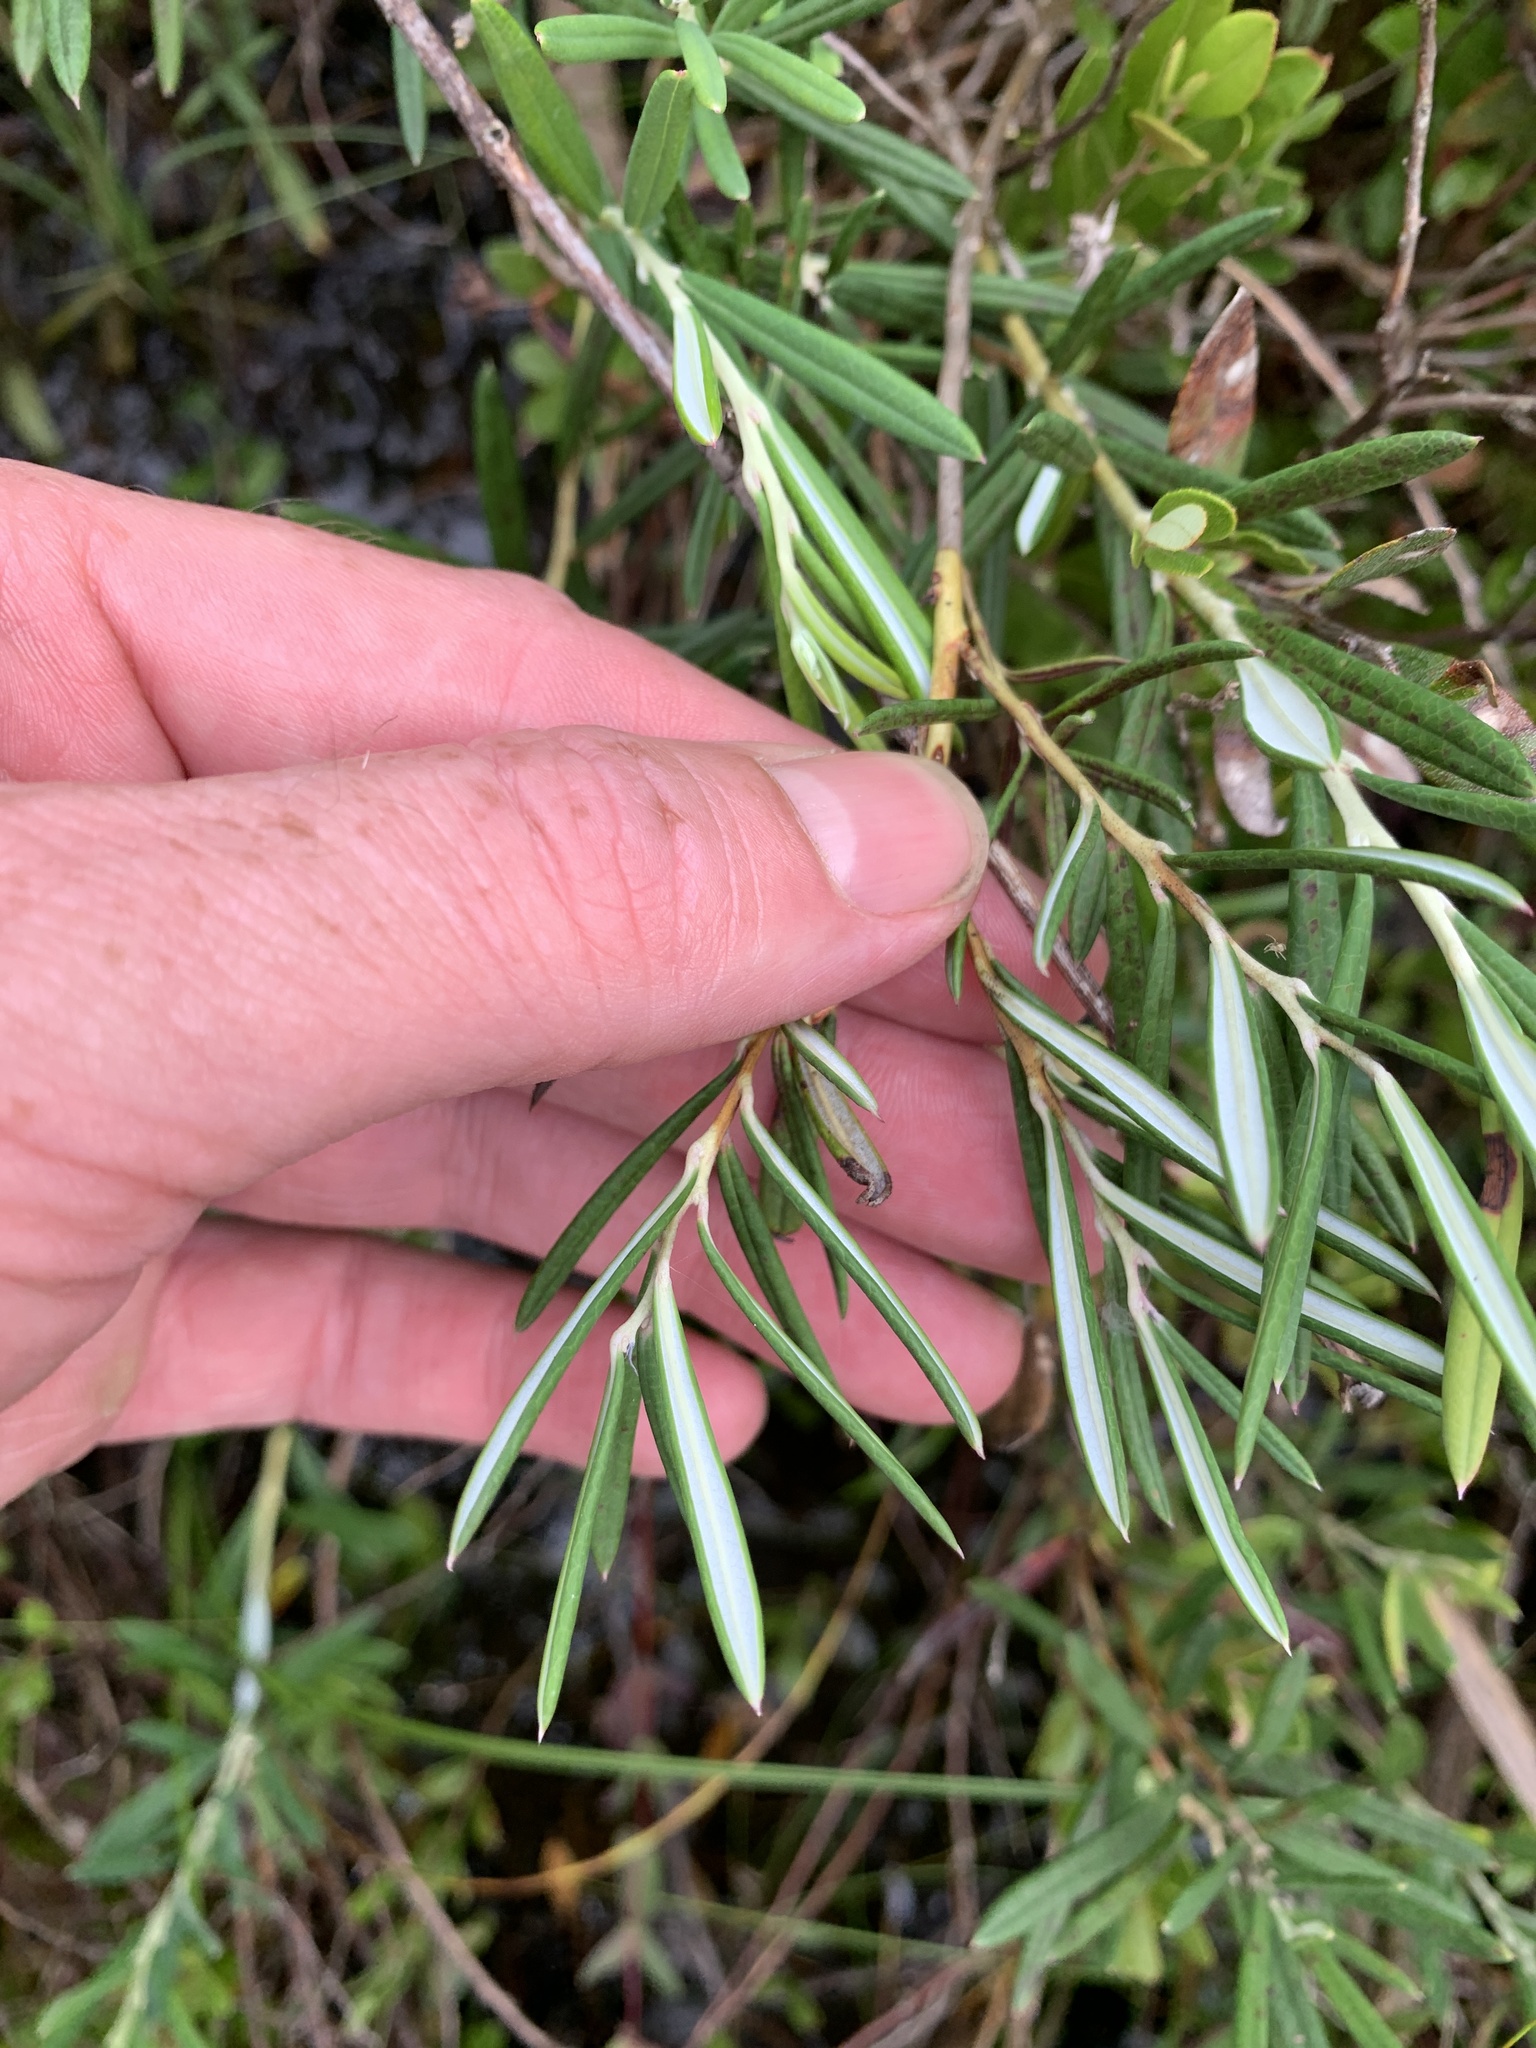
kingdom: Plantae
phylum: Tracheophyta
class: Magnoliopsida
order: Ericales
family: Ericaceae
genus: Andromeda
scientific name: Andromeda polifolia
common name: Bog-rosemary
